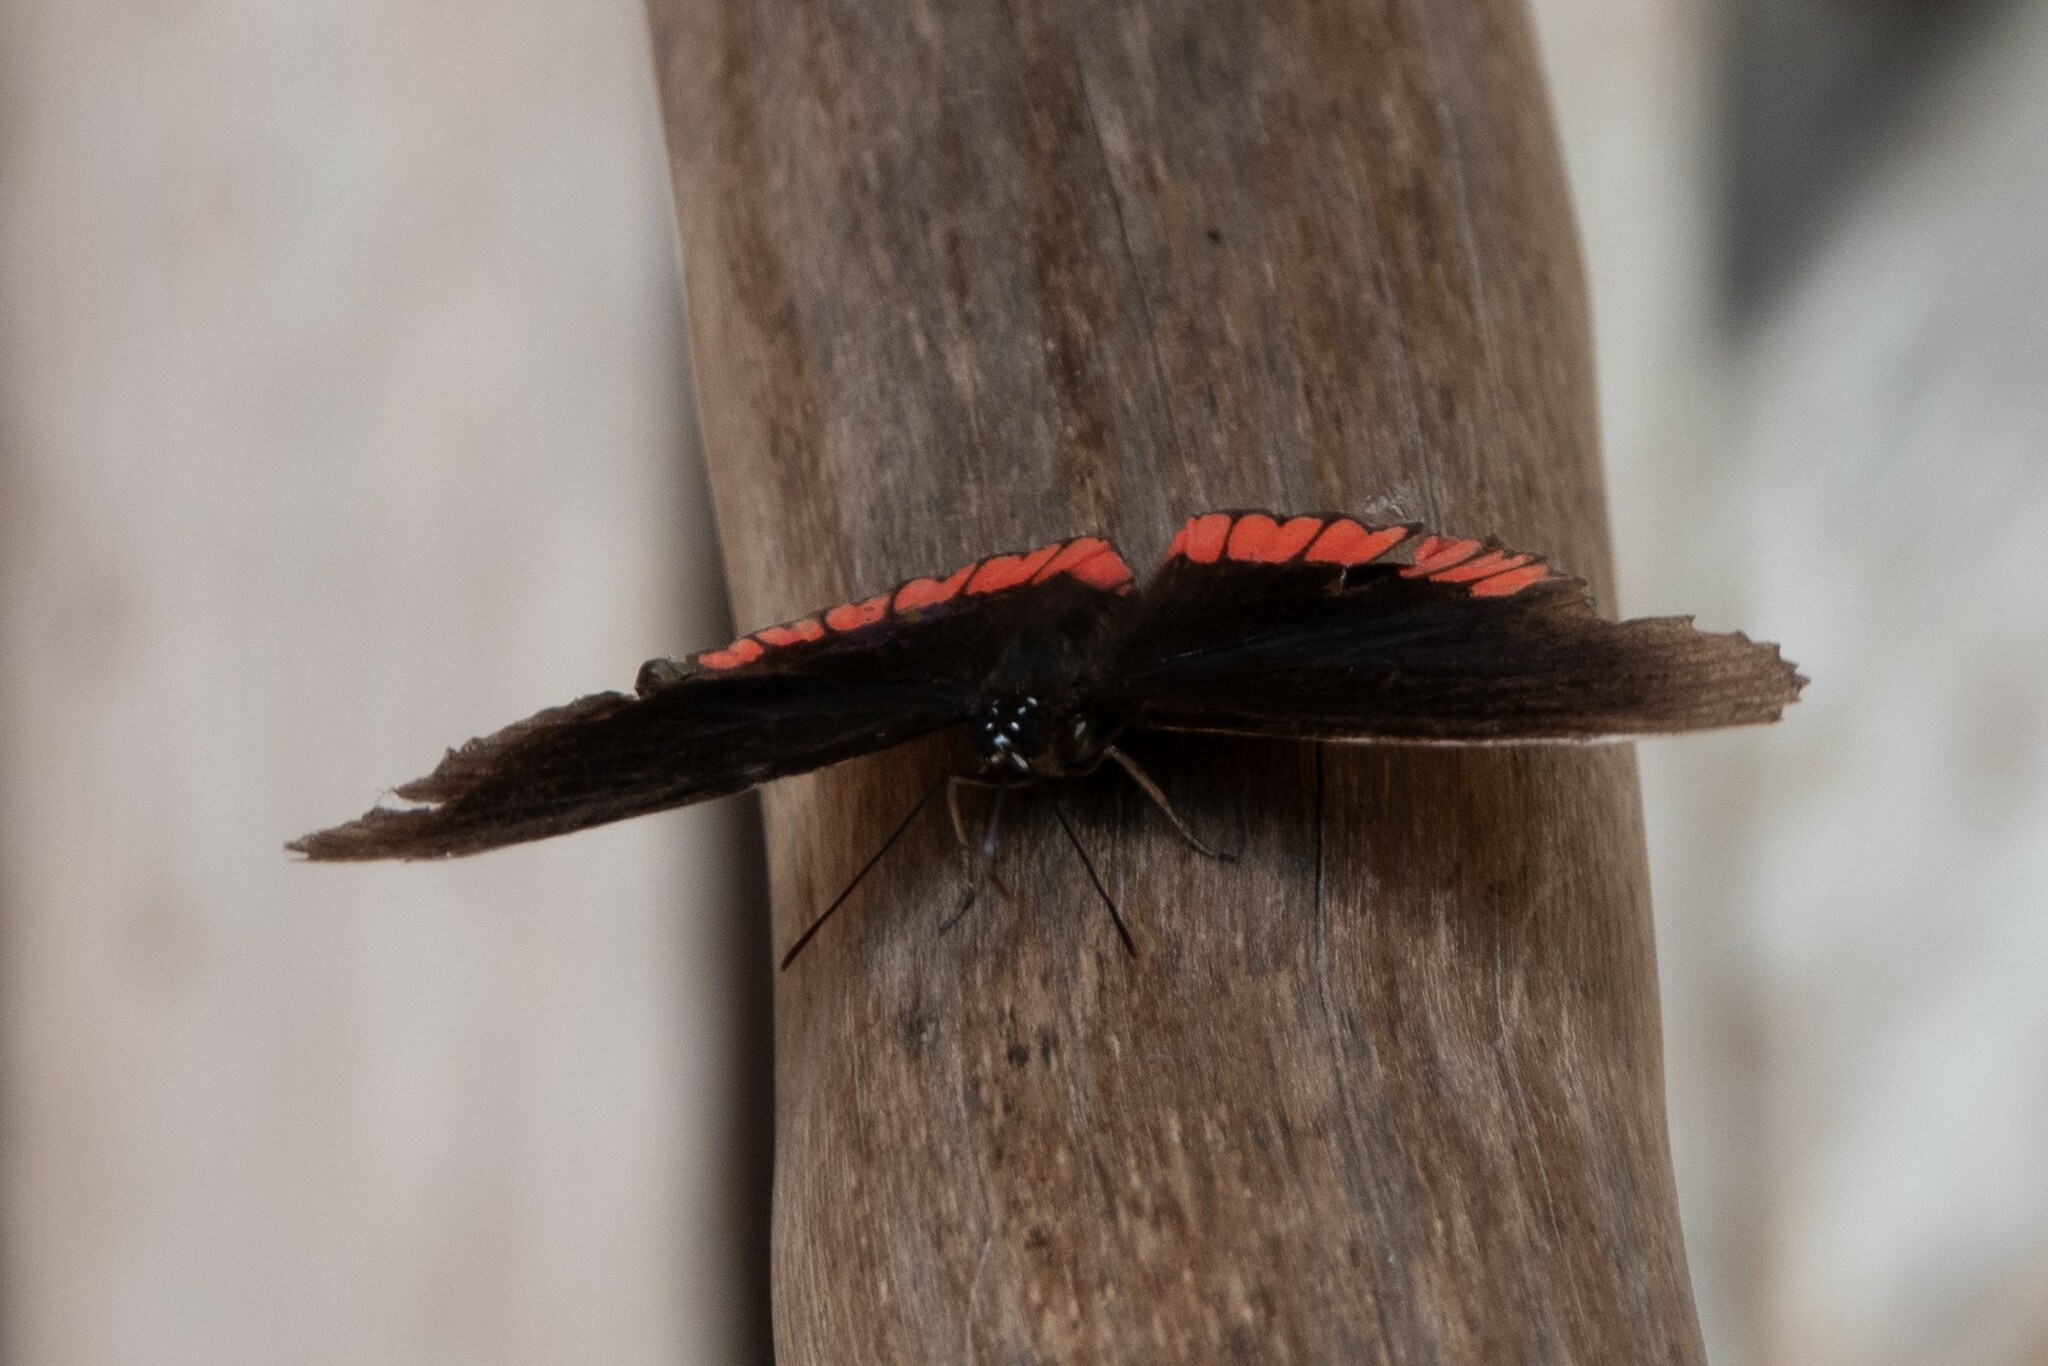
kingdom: Animalia
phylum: Arthropoda
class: Insecta
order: Lepidoptera
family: Sesiidae
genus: Sesia
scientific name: Sesia Biblis hyperia
